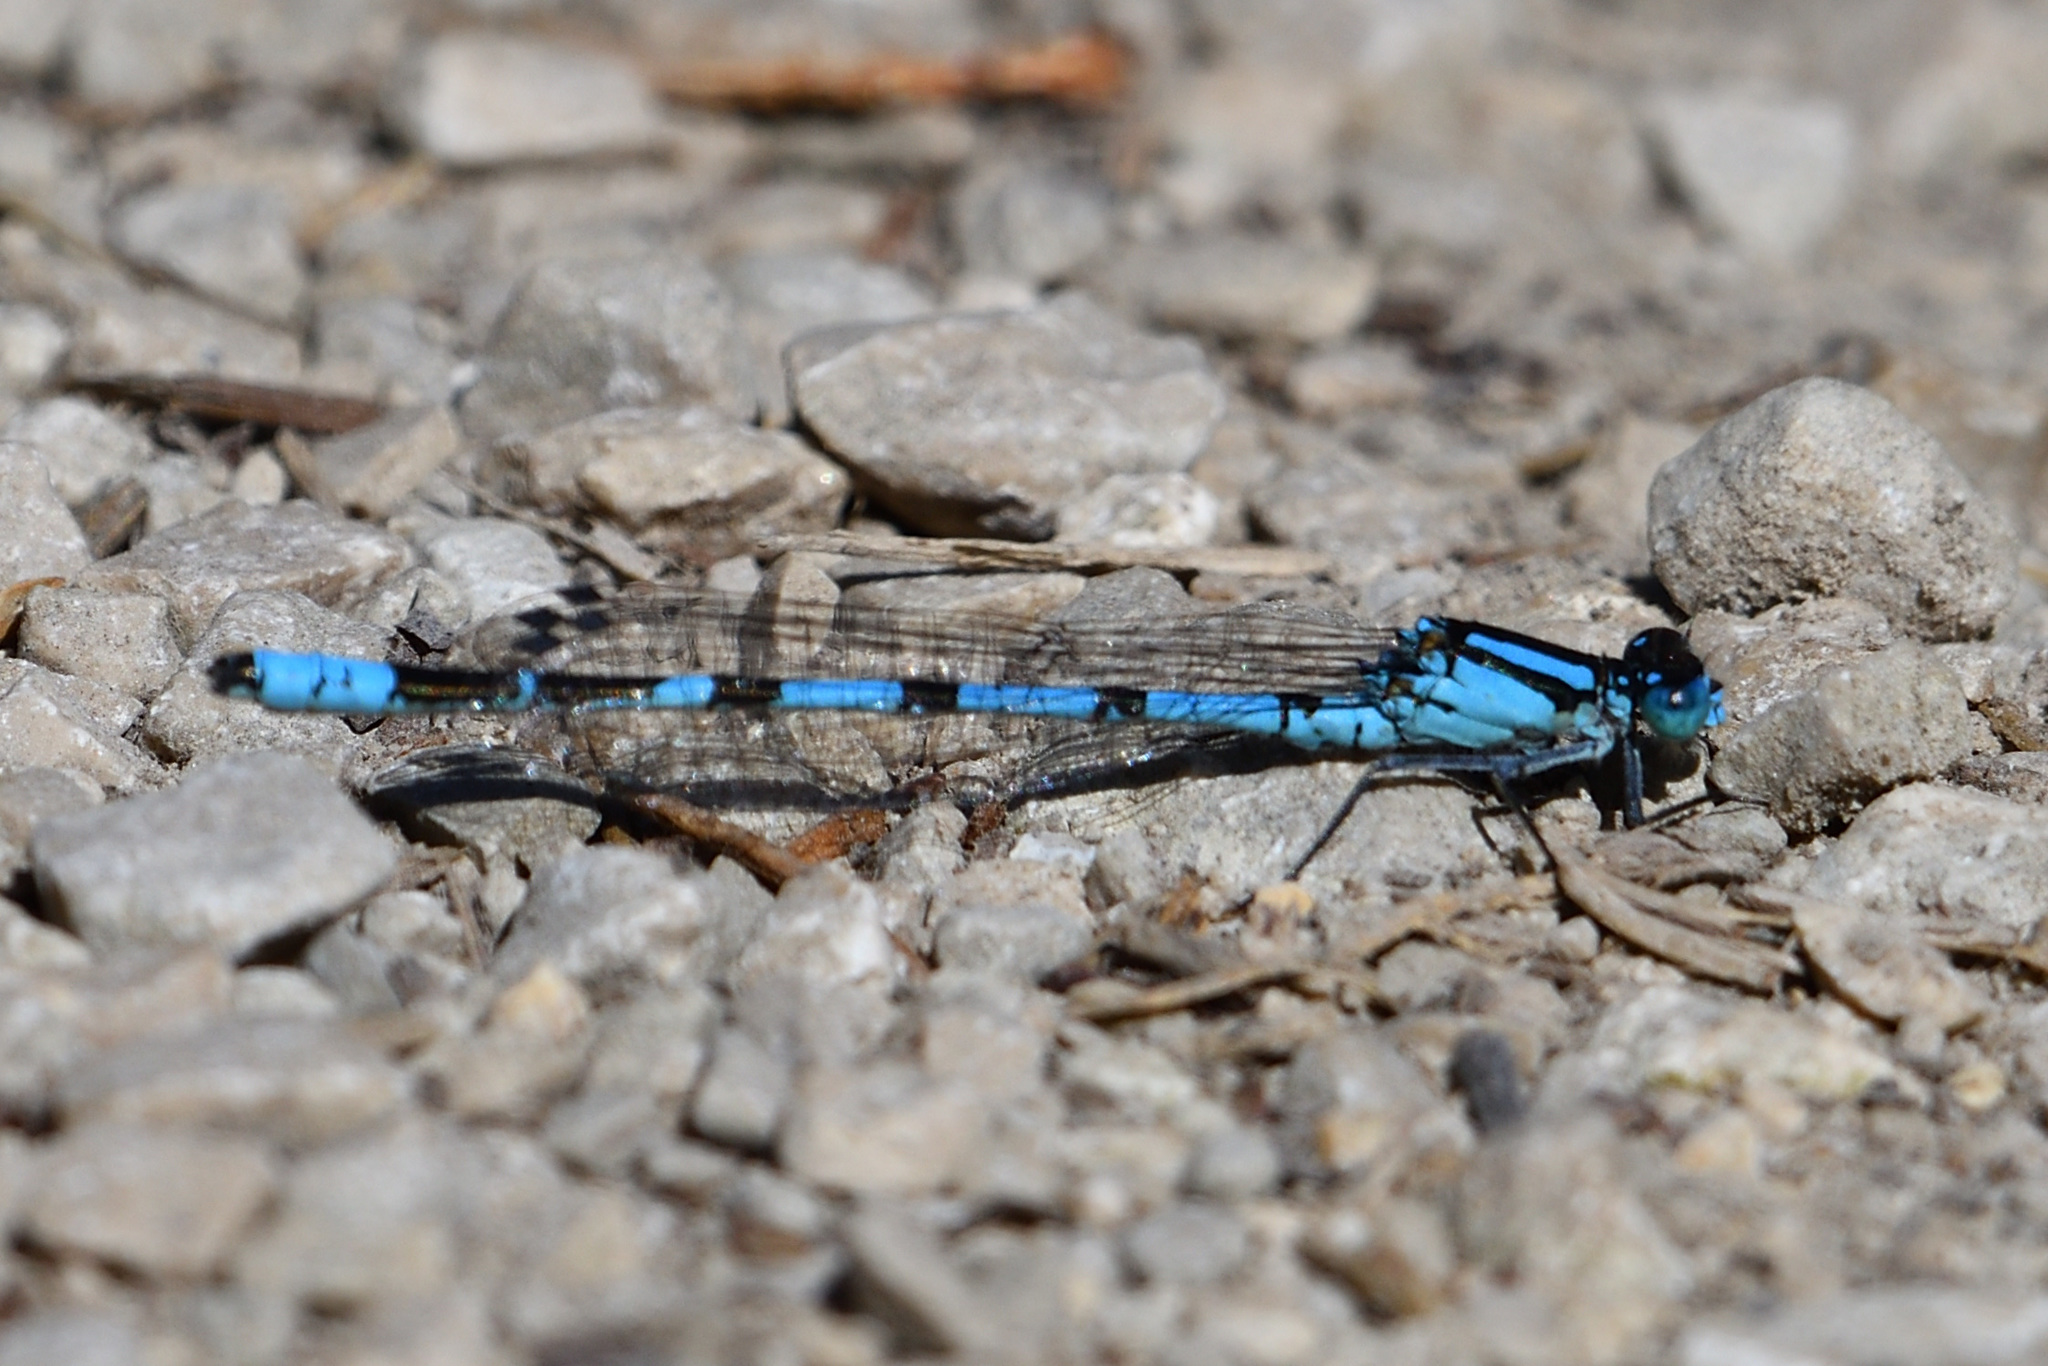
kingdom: Animalia
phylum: Arthropoda
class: Insecta
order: Odonata
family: Coenagrionidae
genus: Enallagma
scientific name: Enallagma cyathigerum
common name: Common blue damselfly
